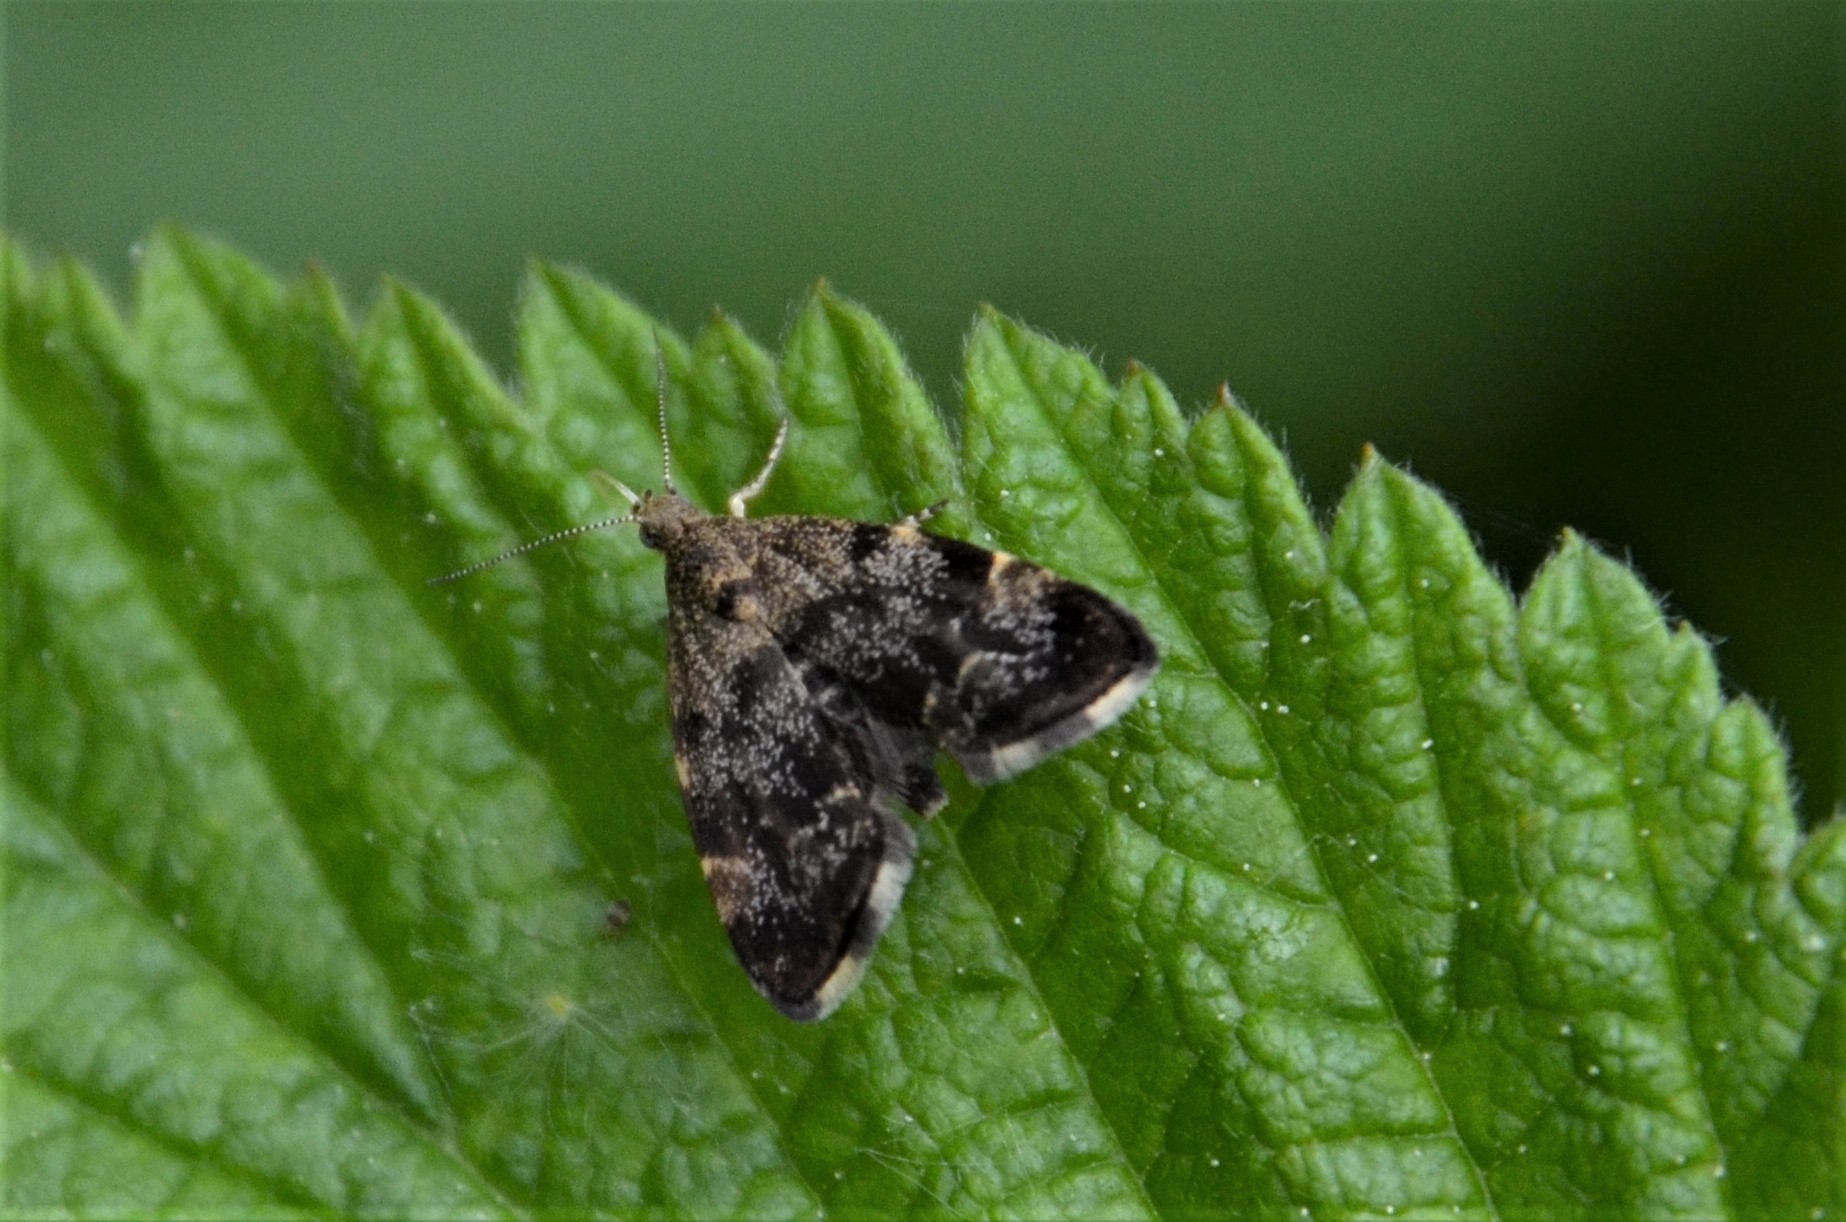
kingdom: Animalia
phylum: Arthropoda
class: Insecta
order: Lepidoptera
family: Choreutidae
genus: Anthophila
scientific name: Anthophila fabriciana
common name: Nettle-tap
